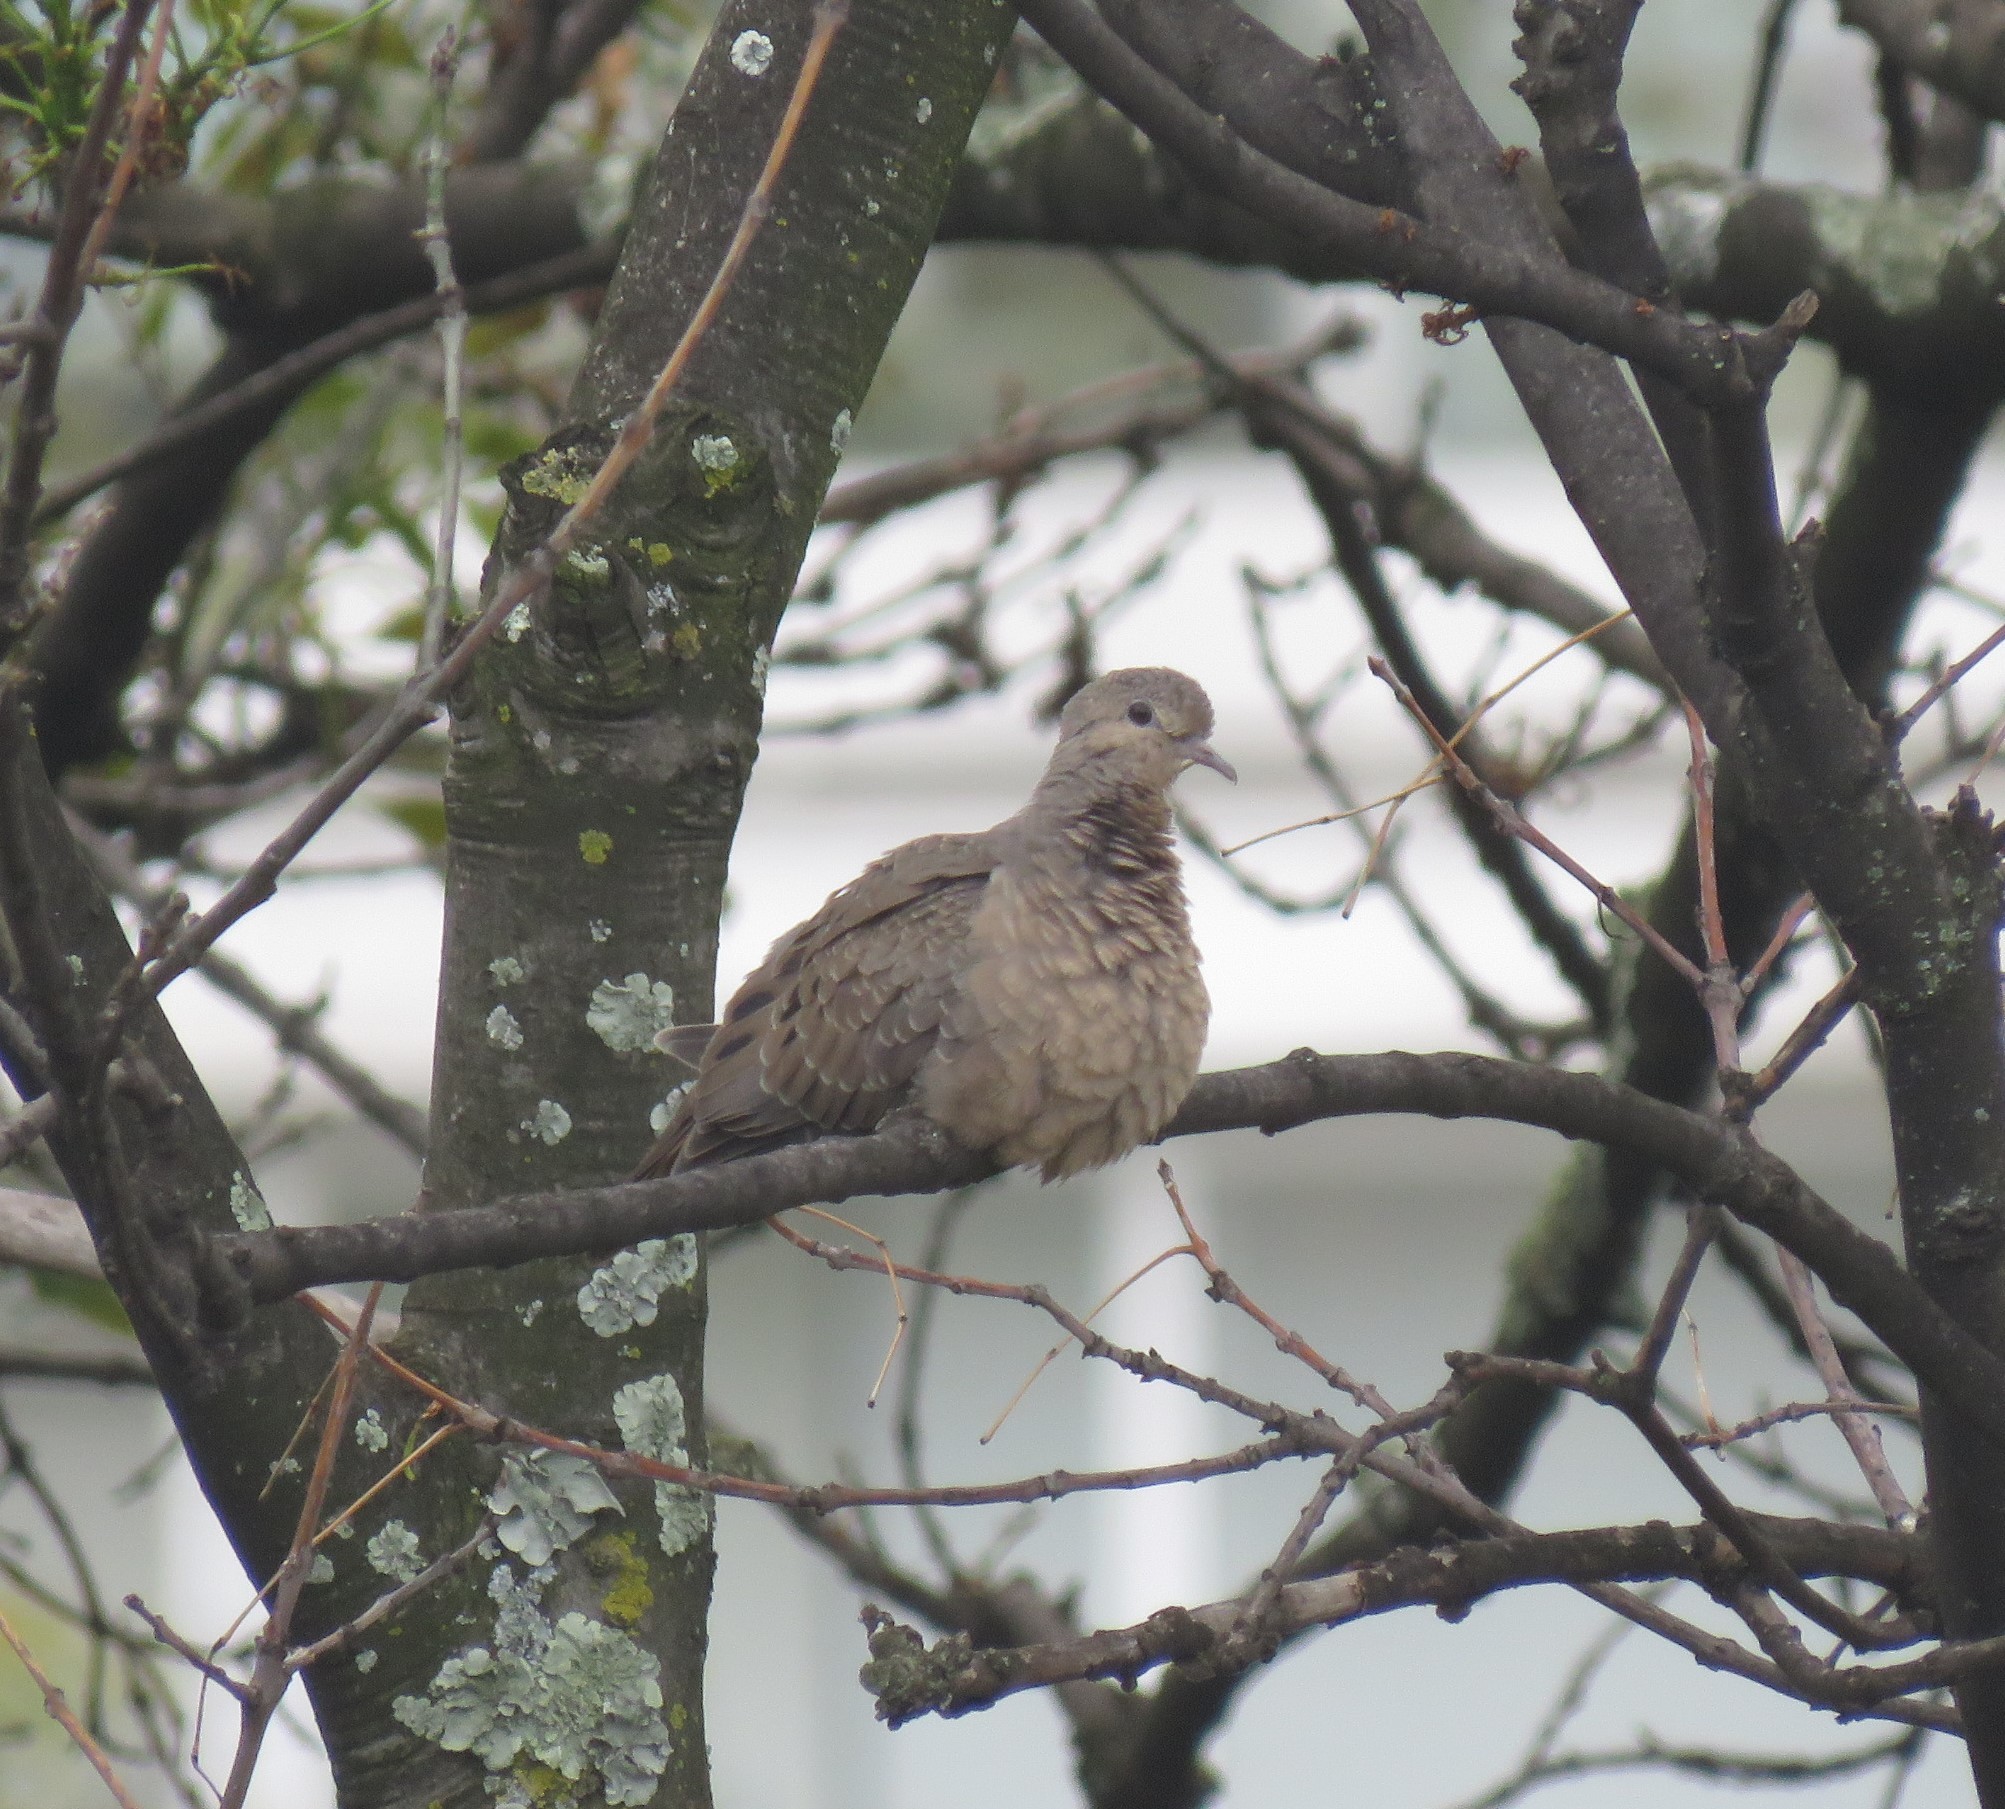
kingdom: Animalia
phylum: Chordata
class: Aves
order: Columbiformes
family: Columbidae
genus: Zenaida
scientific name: Zenaida auriculata
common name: Eared dove
